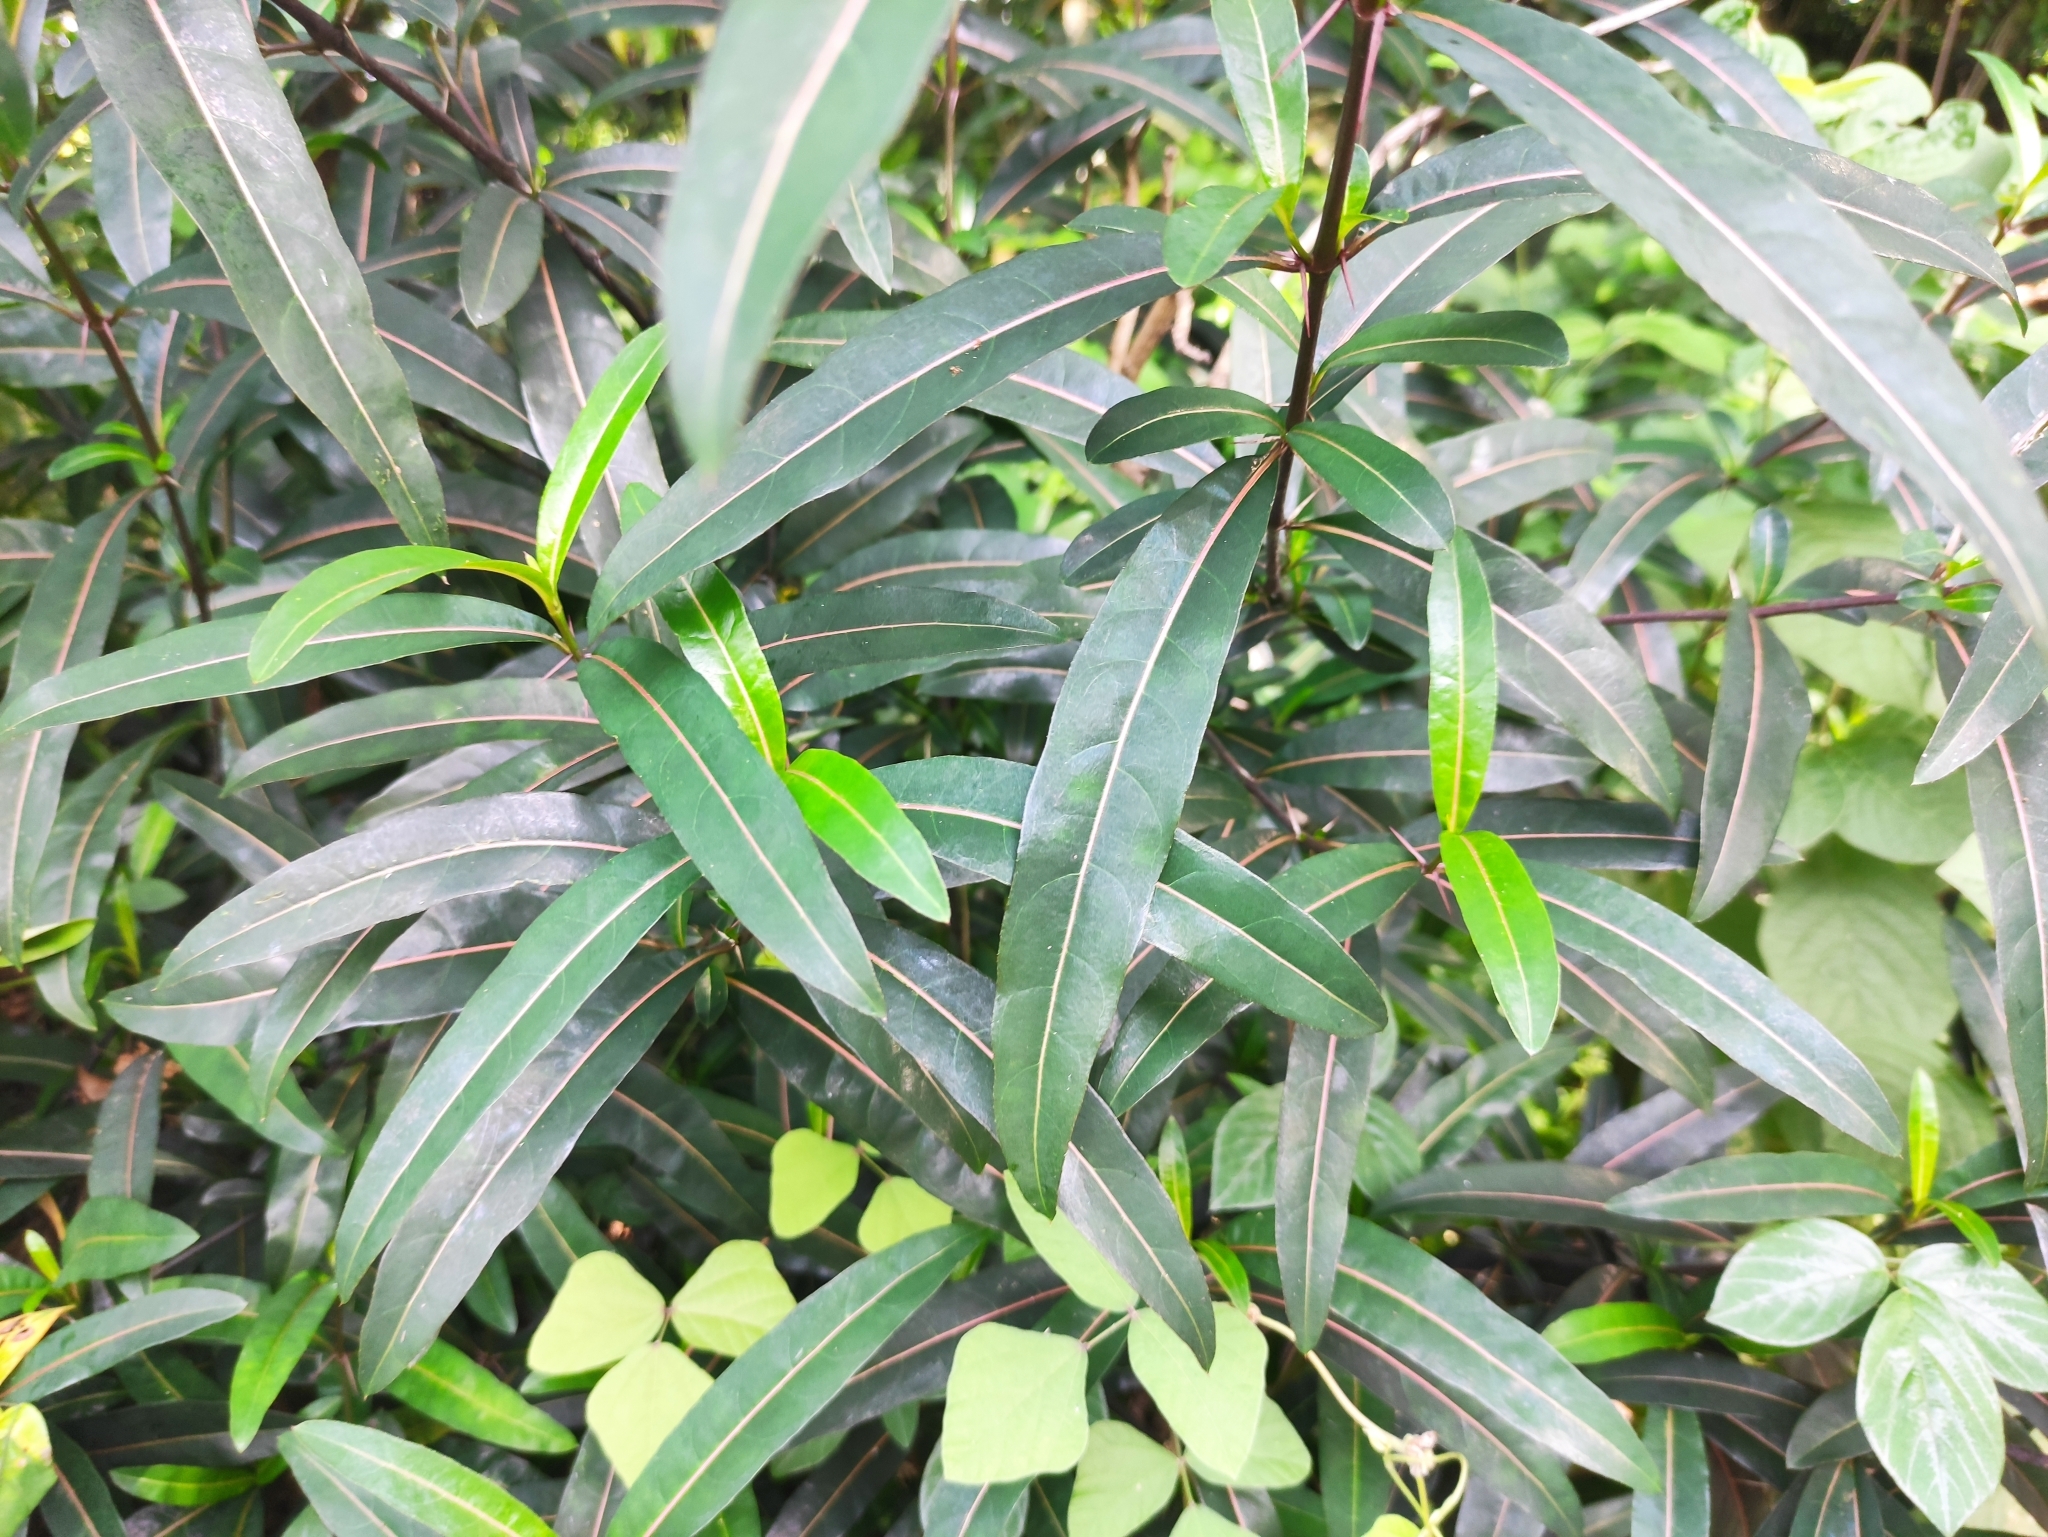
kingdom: Plantae
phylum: Tracheophyta
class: Magnoliopsida
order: Lamiales
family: Acanthaceae
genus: Barleria
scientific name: Barleria lupulina
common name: Hophead philippine violet
